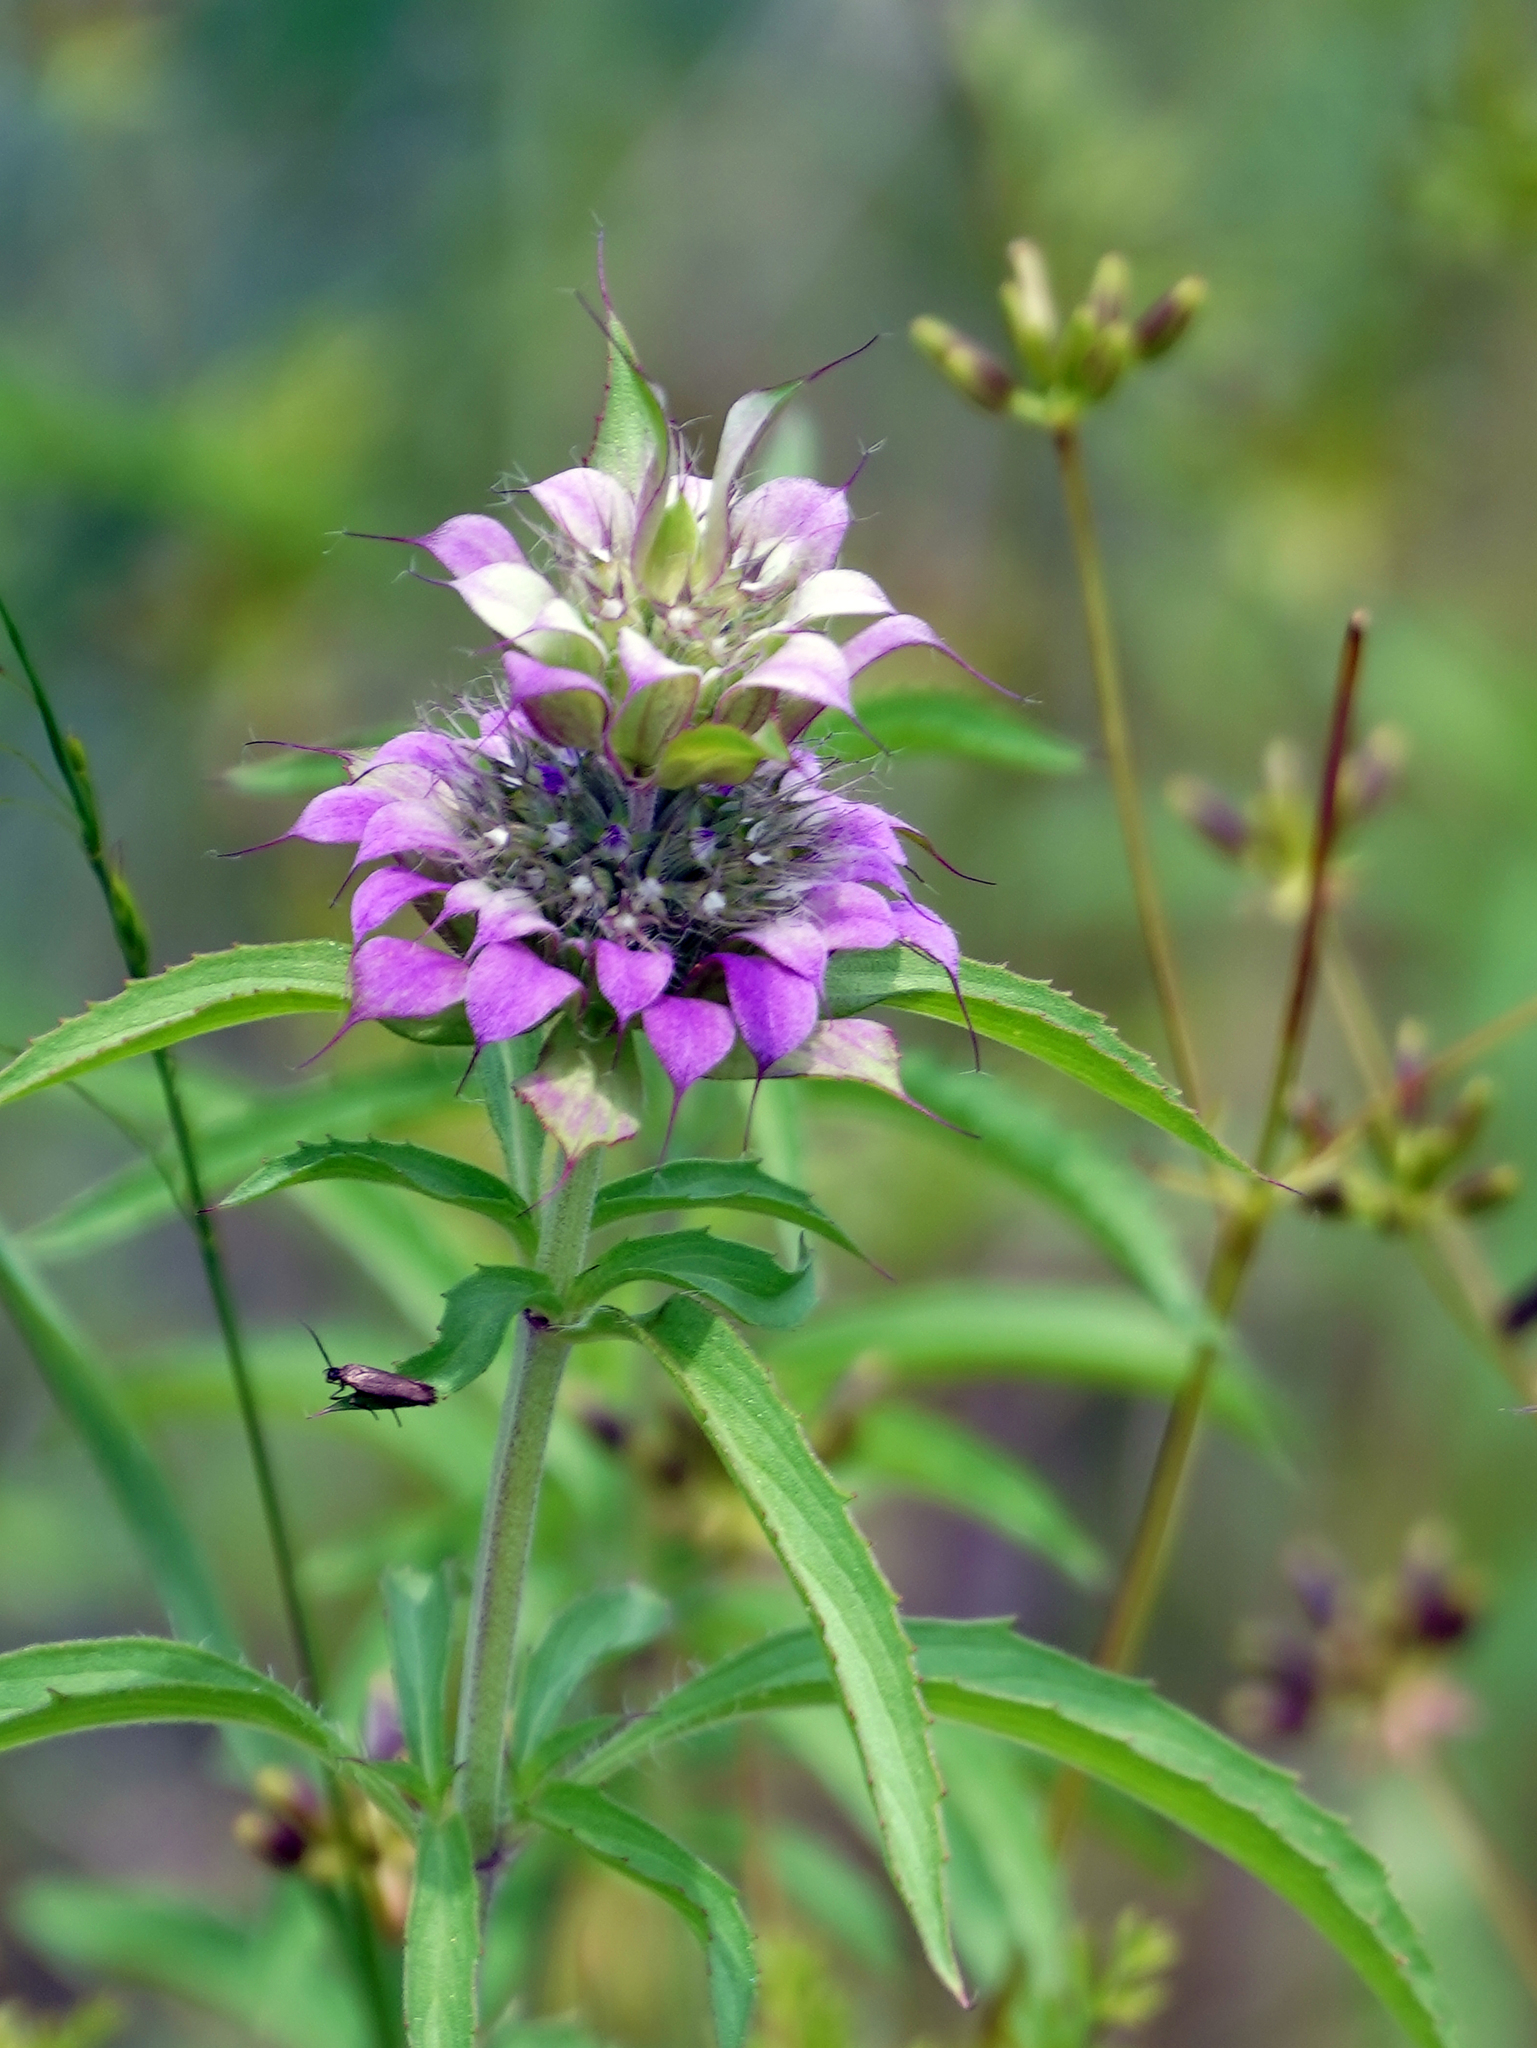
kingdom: Plantae
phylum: Tracheophyta
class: Magnoliopsida
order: Lamiales
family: Lamiaceae
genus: Monarda
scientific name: Monarda citriodora
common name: Lemon beebalm
